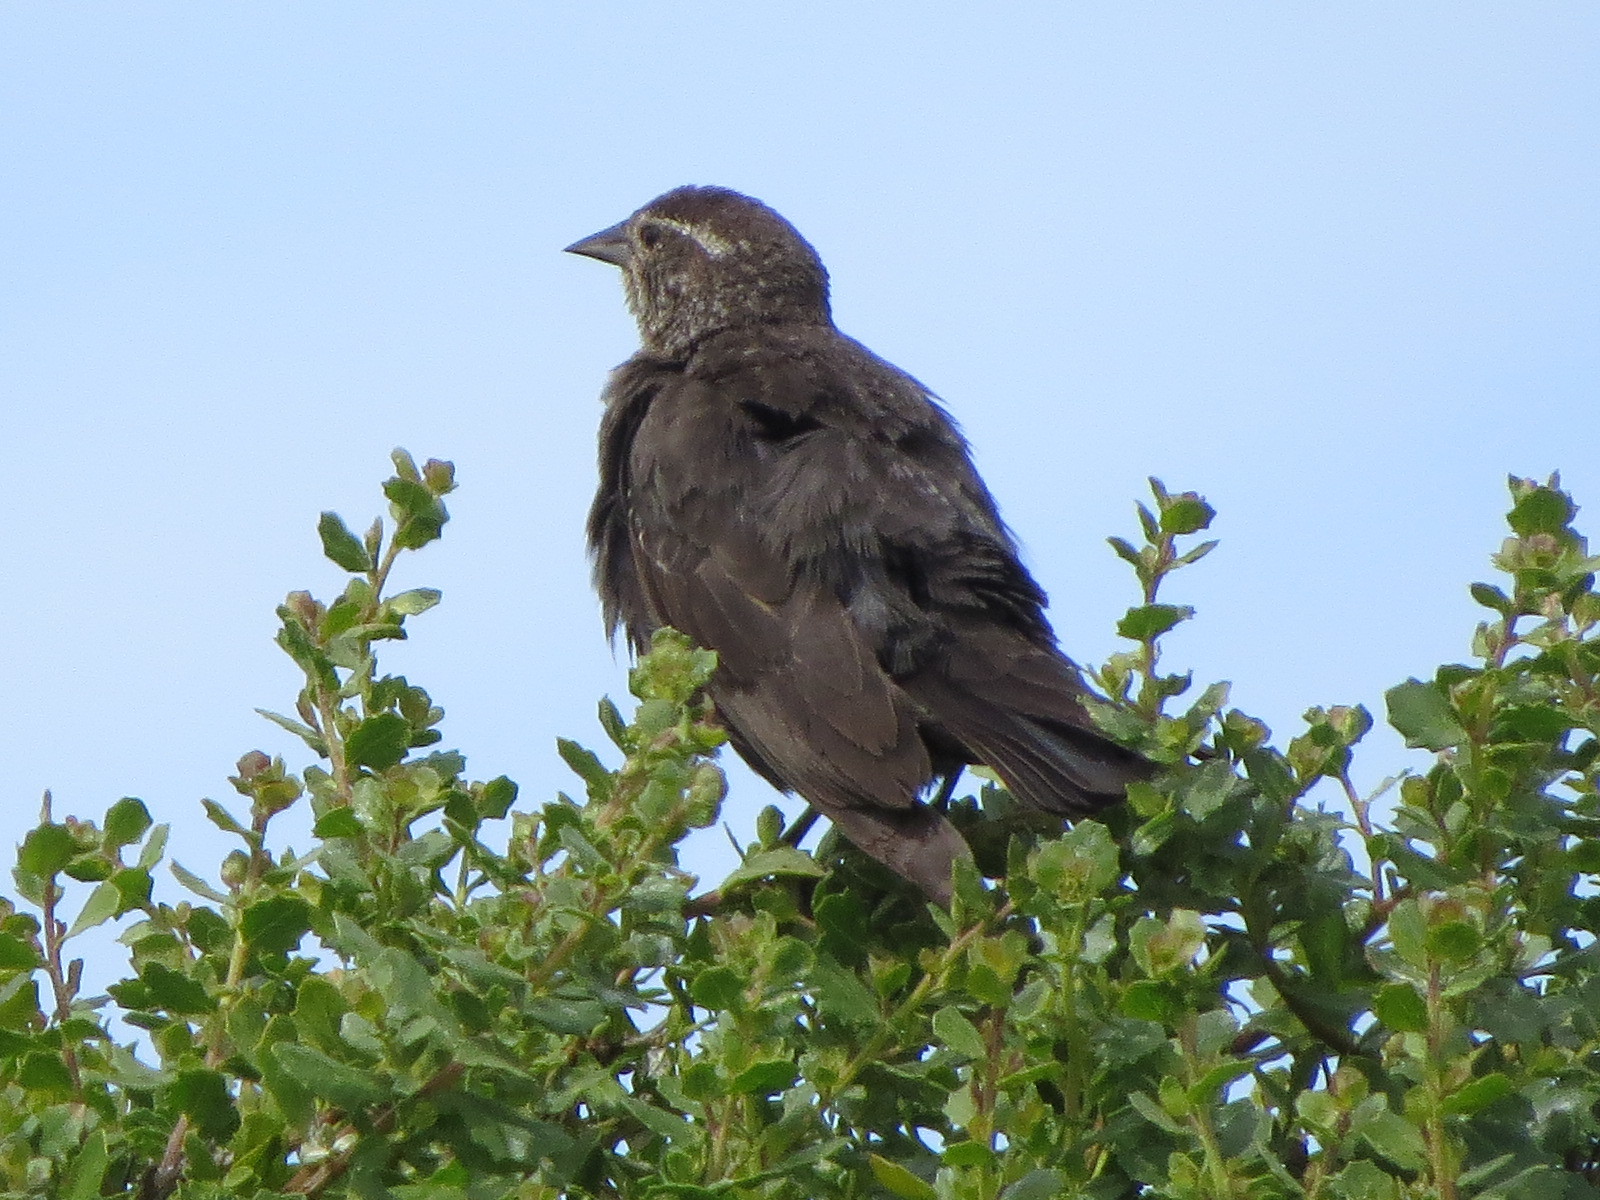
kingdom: Animalia
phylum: Chordata
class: Aves
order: Passeriformes
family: Icteridae
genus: Agelaius
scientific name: Agelaius phoeniceus
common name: Red-winged blackbird
